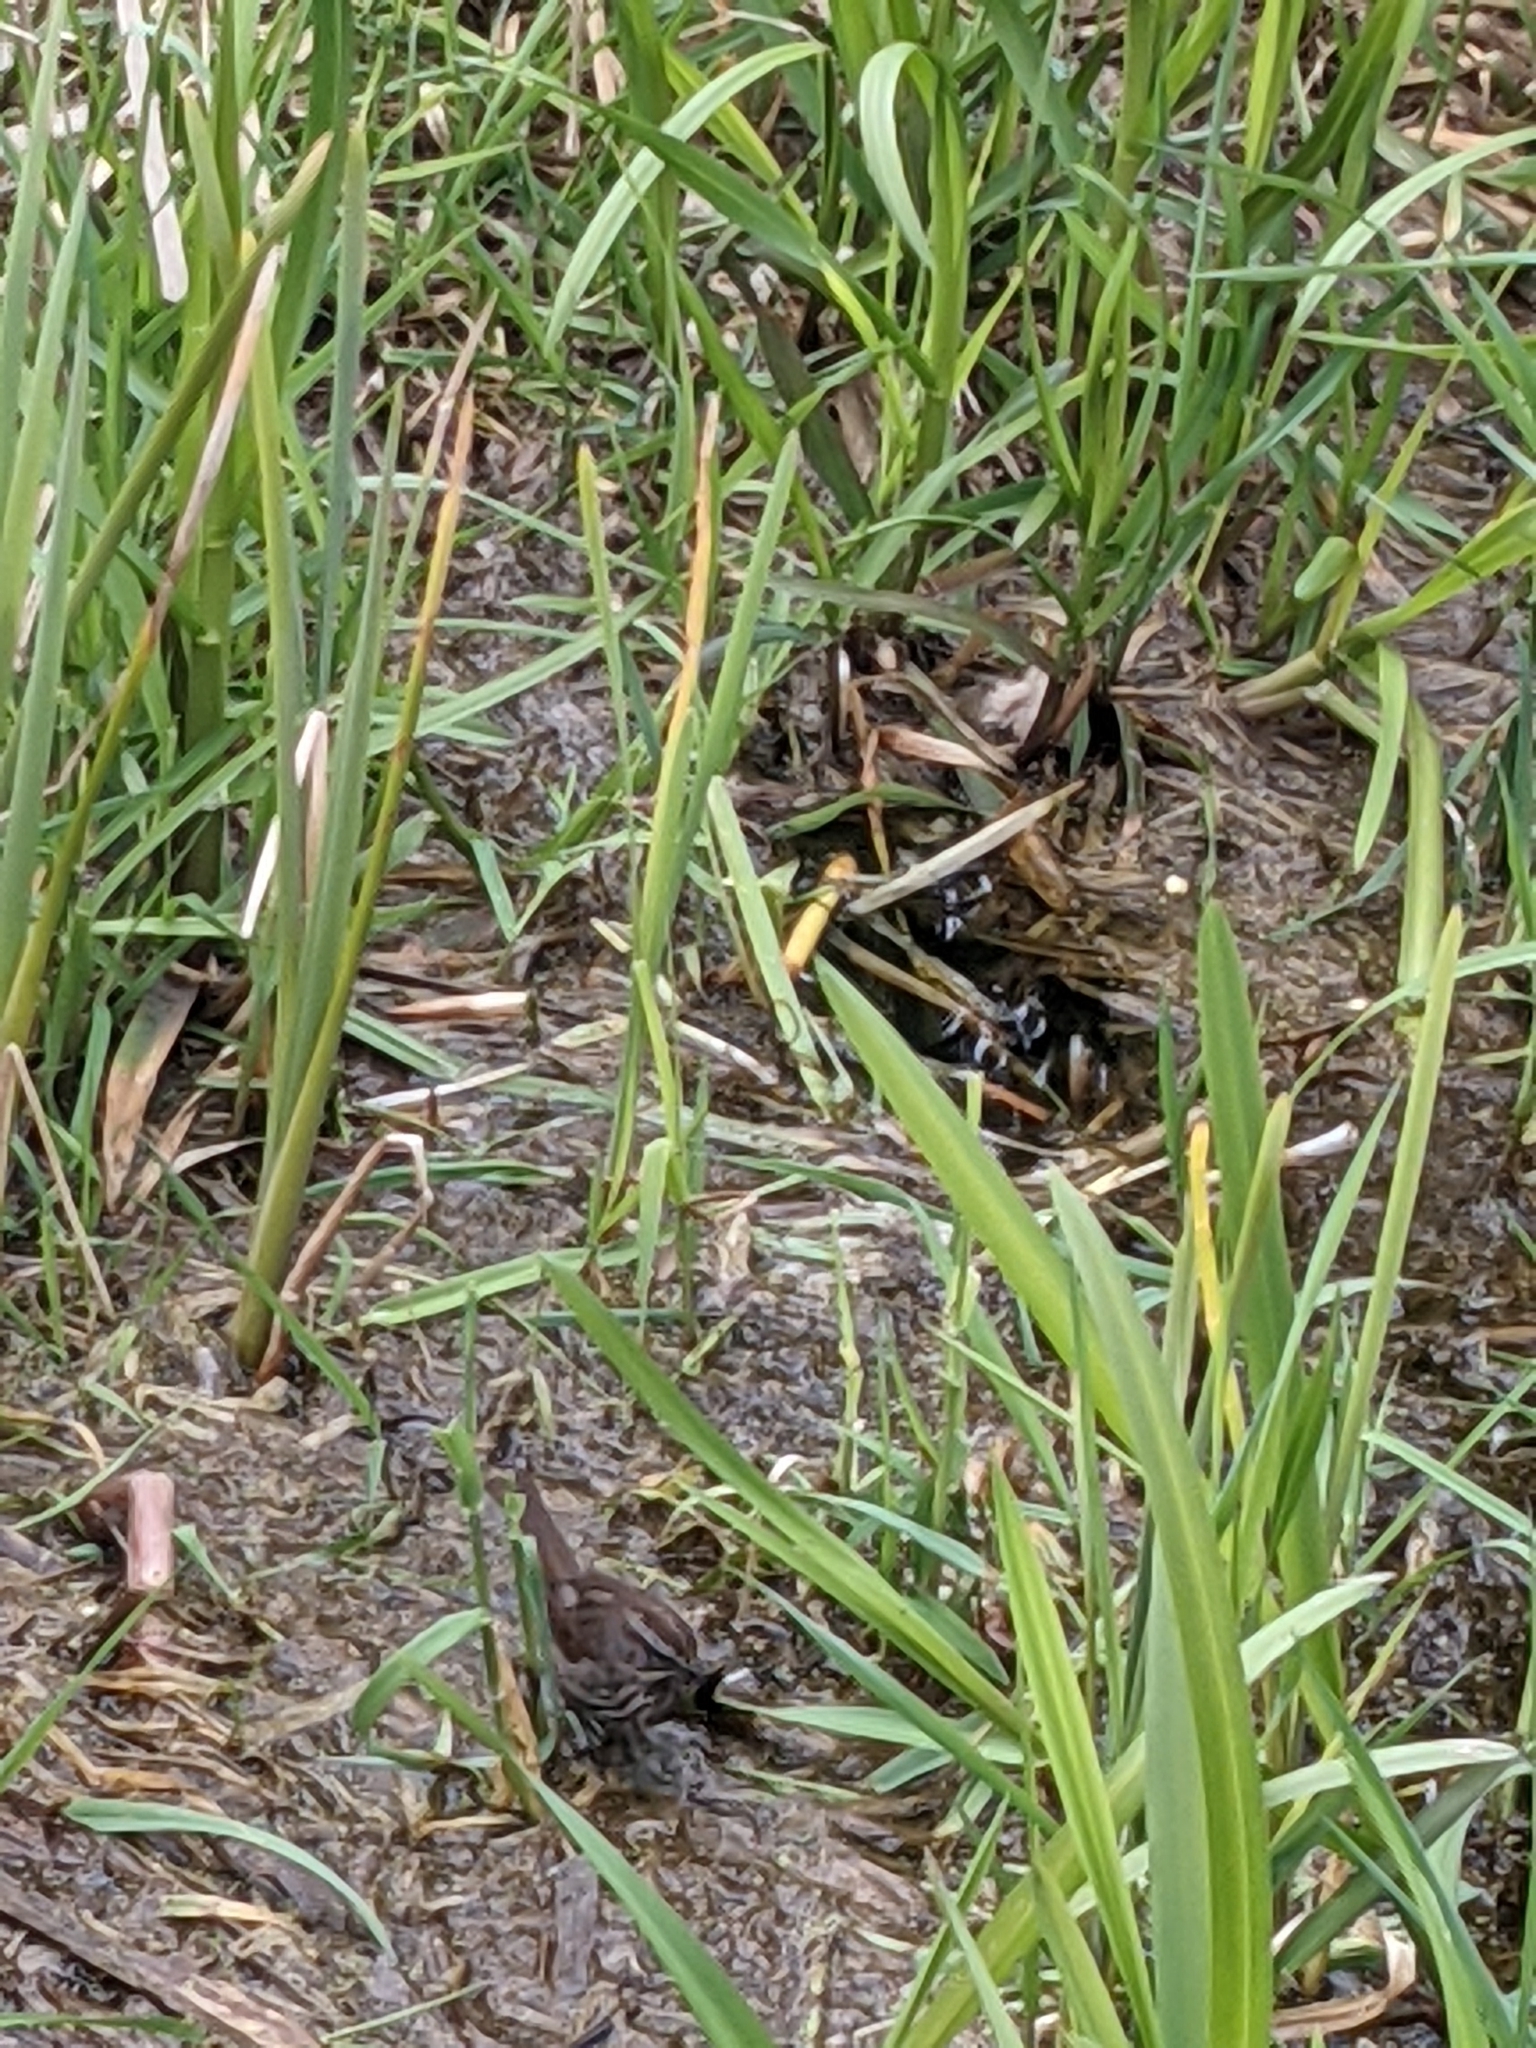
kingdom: Animalia
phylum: Chordata
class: Aves
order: Passeriformes
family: Passerellidae
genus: Melospiza
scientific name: Melospiza melodia
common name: Song sparrow
